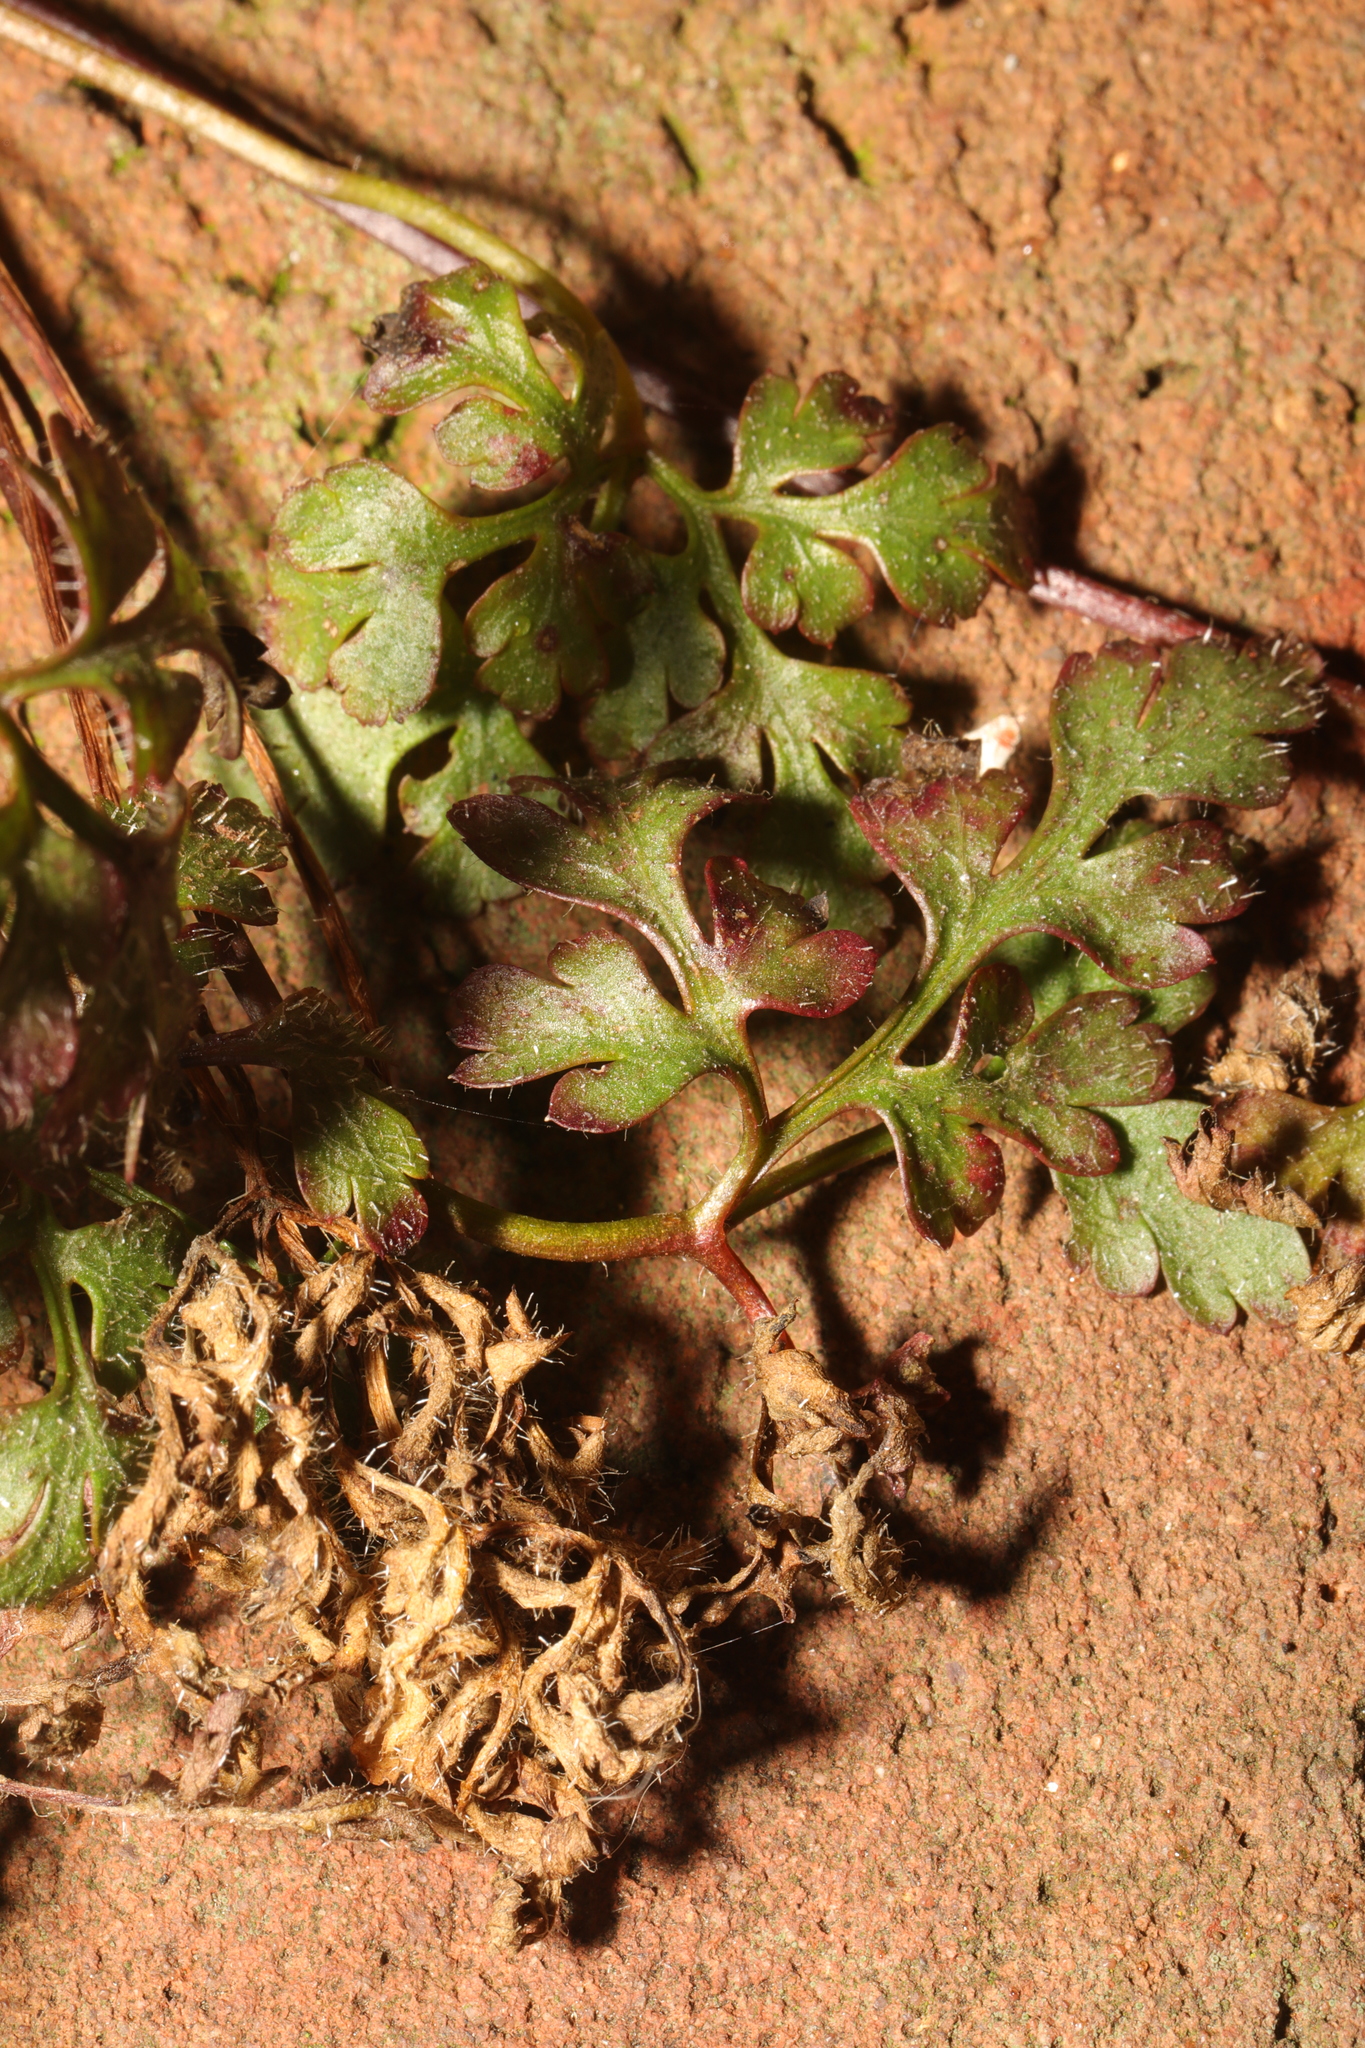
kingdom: Plantae
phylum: Tracheophyta
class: Magnoliopsida
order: Geraniales
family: Geraniaceae
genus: Geranium
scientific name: Geranium robertianum
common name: Herb-robert
